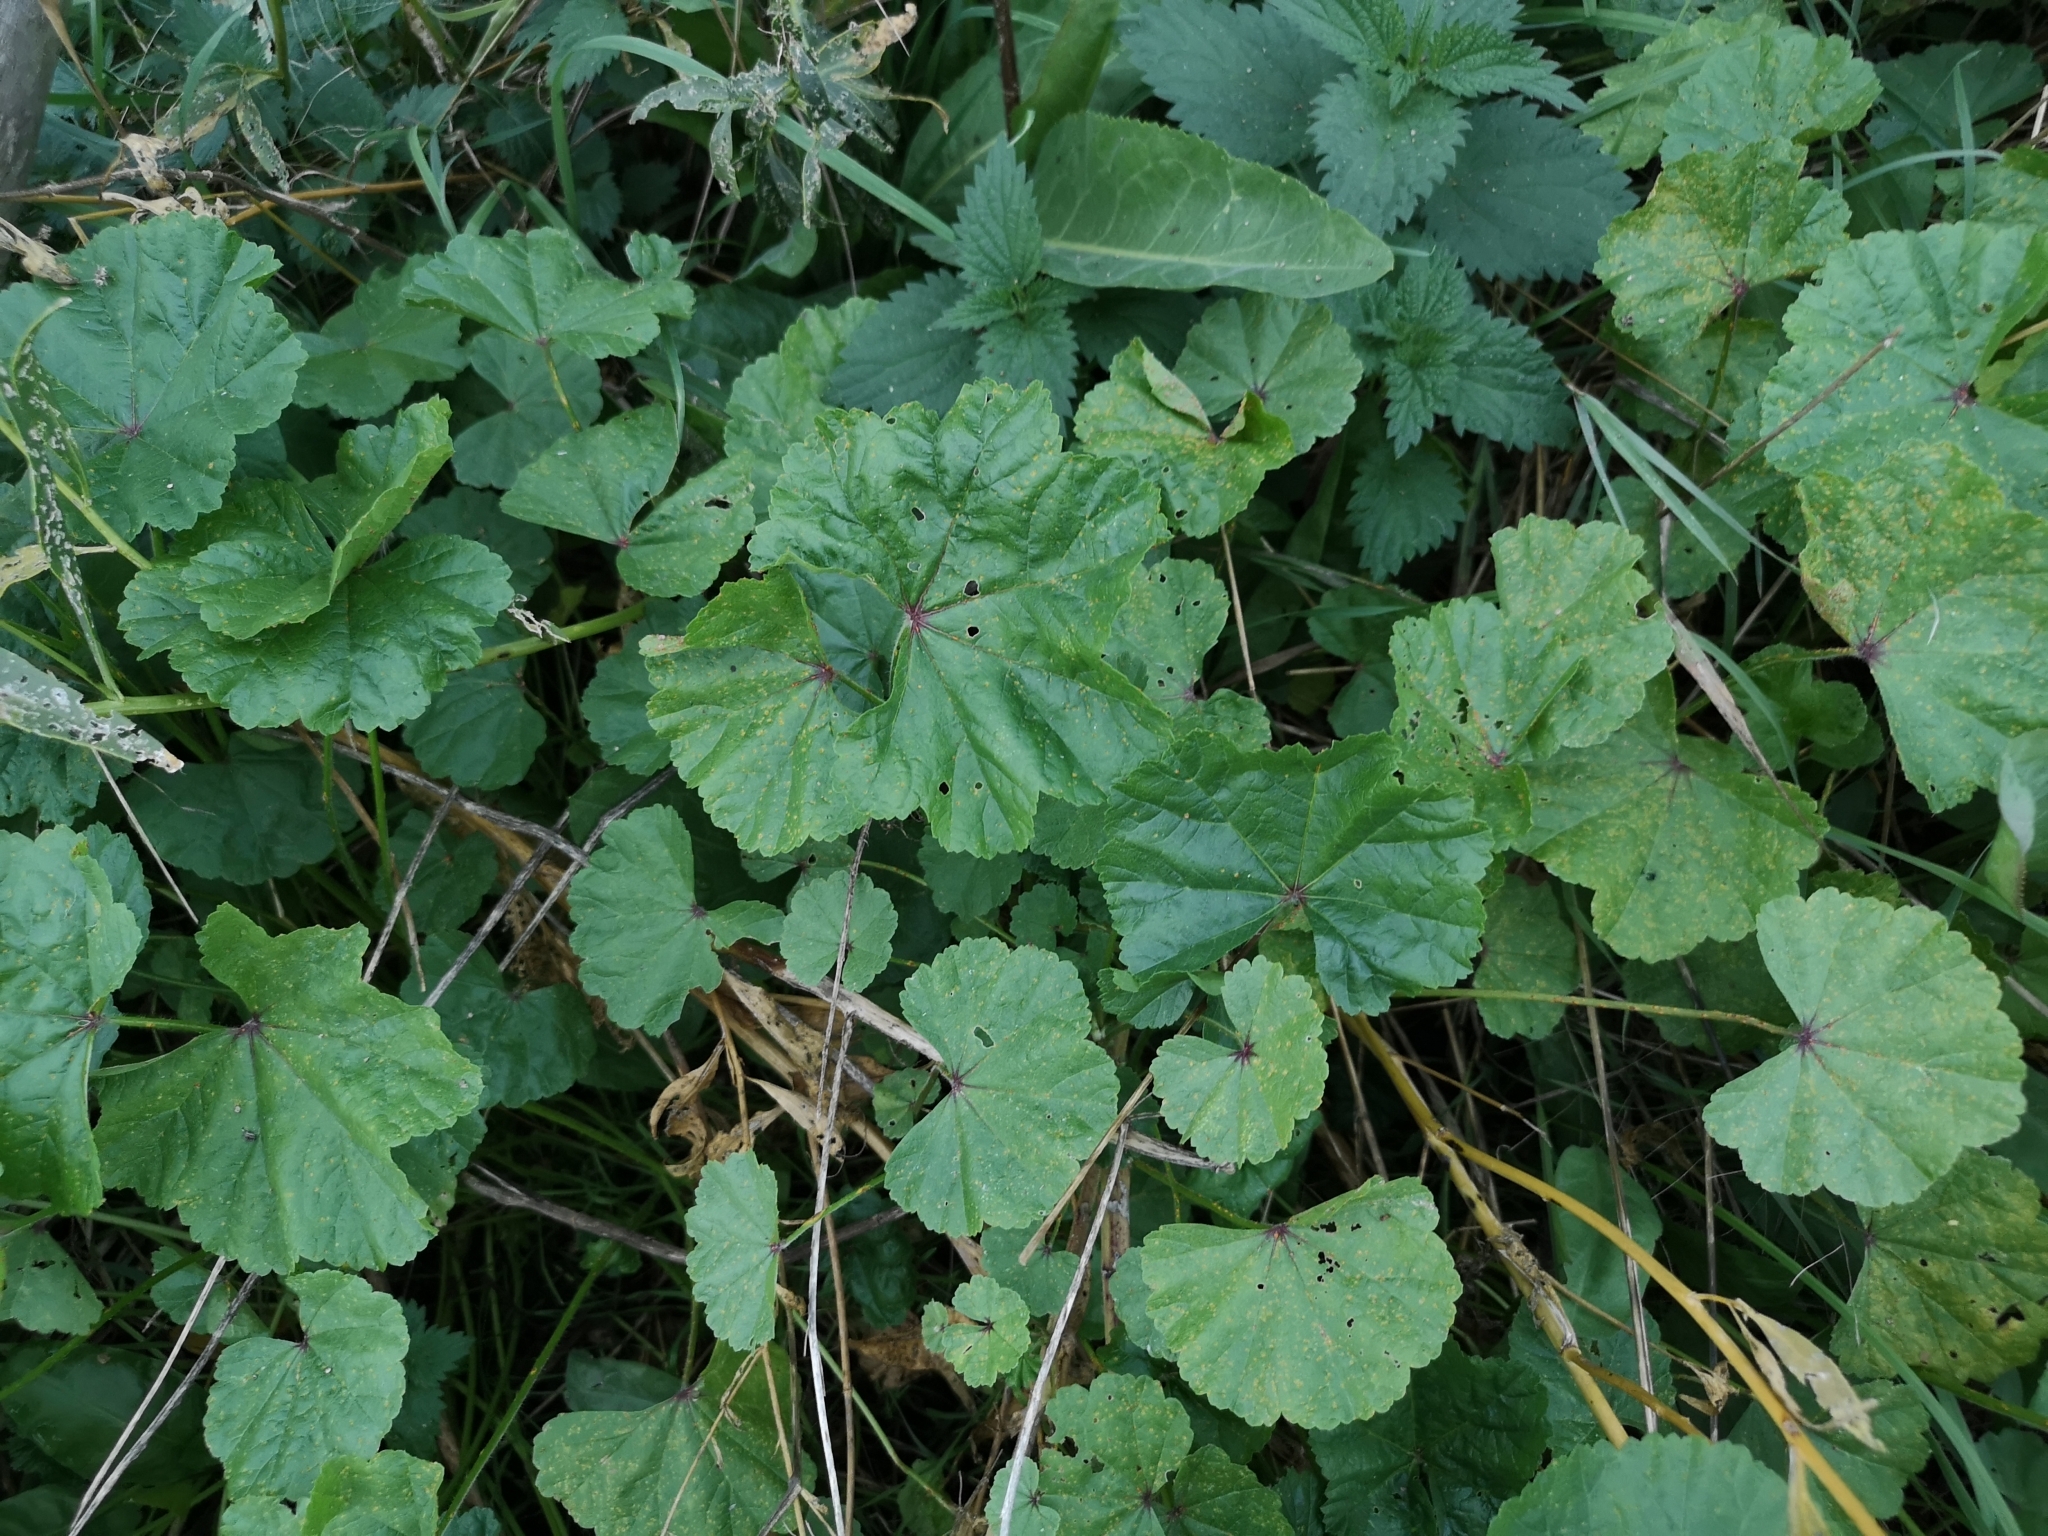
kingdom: Plantae
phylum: Tracheophyta
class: Magnoliopsida
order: Malvales
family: Malvaceae
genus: Malva
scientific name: Malva sylvestris
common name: Common mallow
